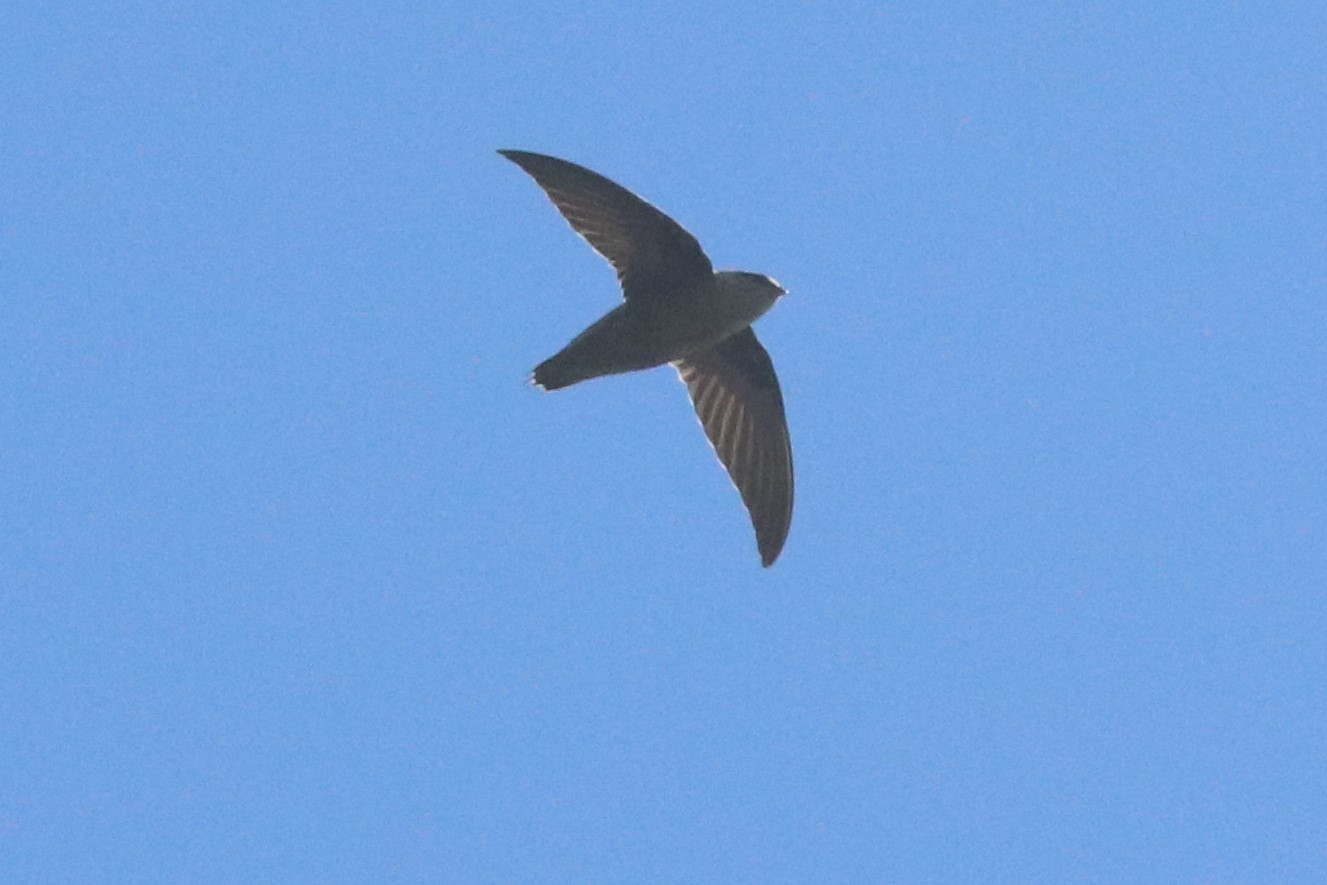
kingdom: Animalia
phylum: Chordata
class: Aves
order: Apodiformes
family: Apodidae
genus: Chaetura
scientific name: Chaetura pelagica
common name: Chimney swift
